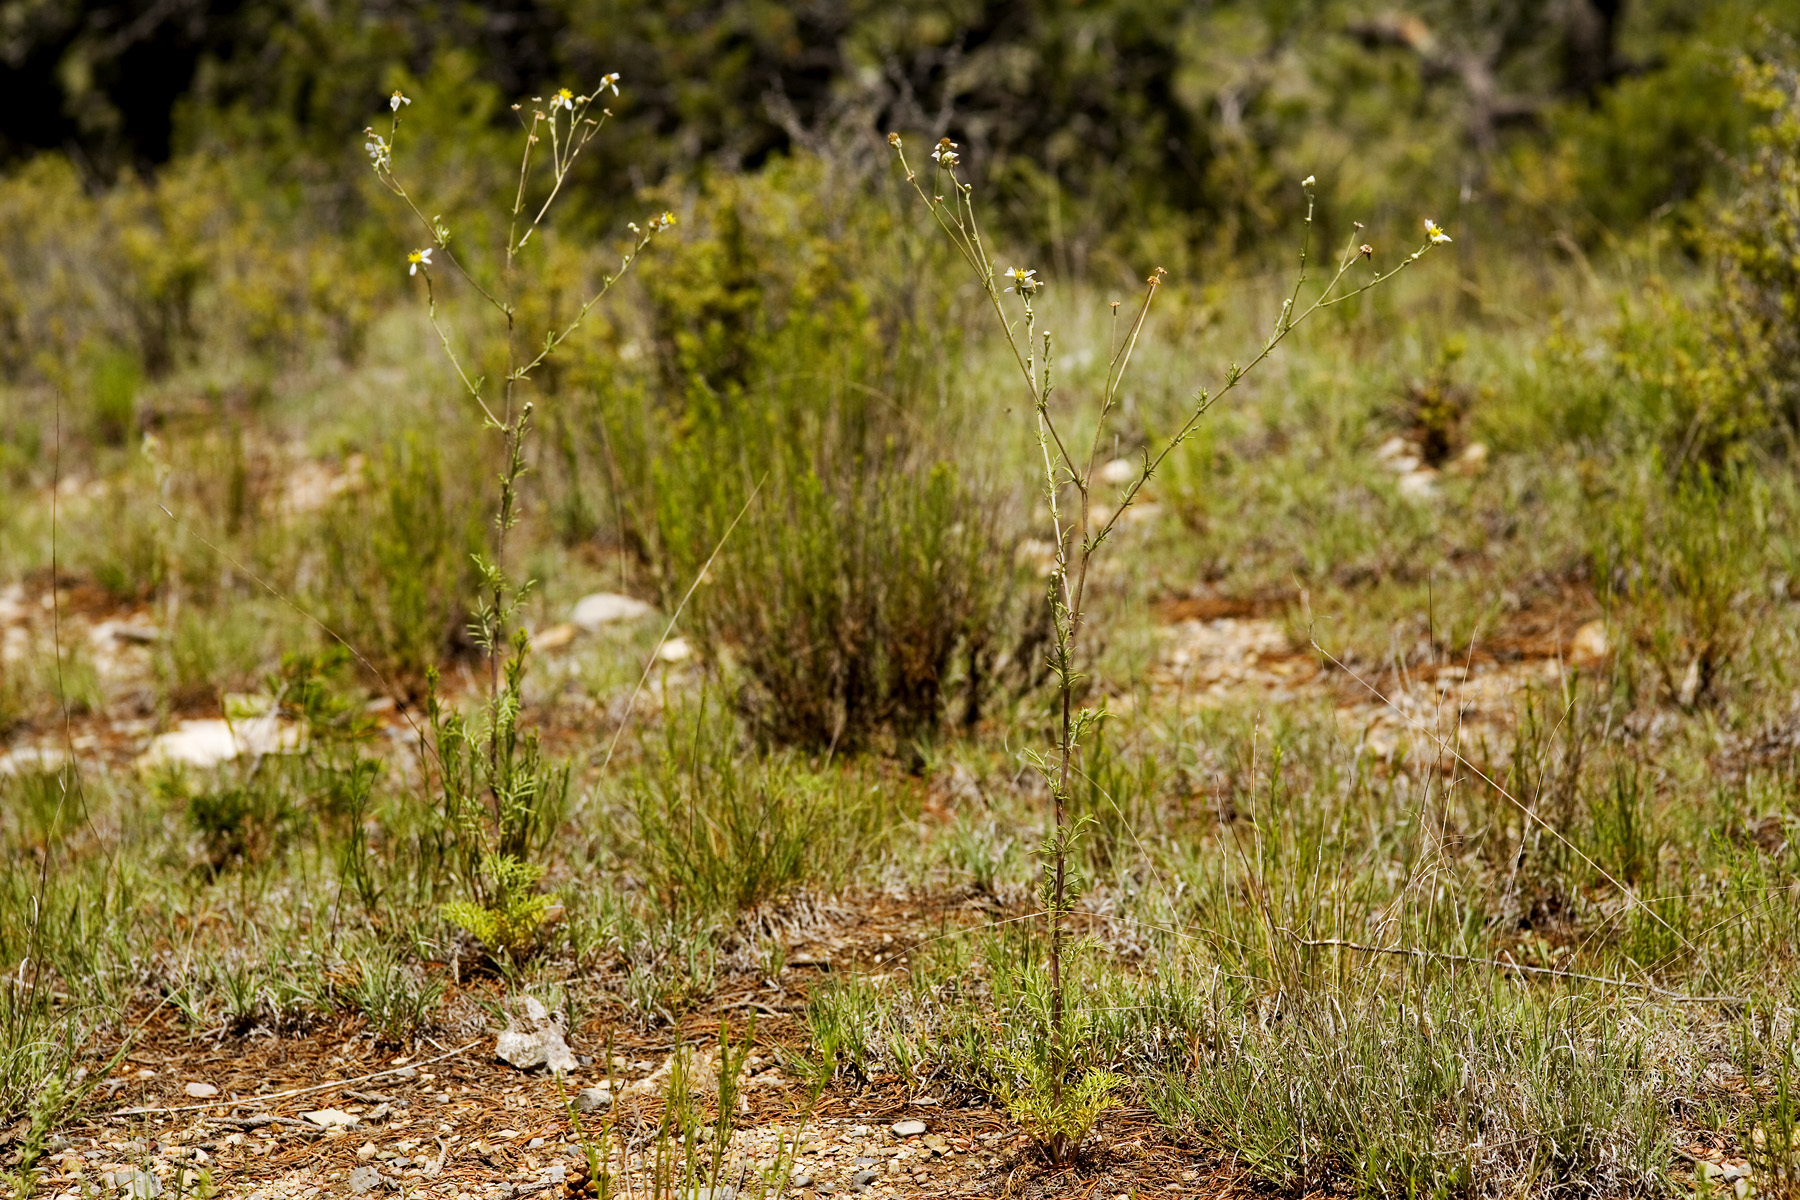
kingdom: Plantae
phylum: Tracheophyta
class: Magnoliopsida
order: Asterales
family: Asteraceae
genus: Hymenopappus
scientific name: Hymenopappus biennis
